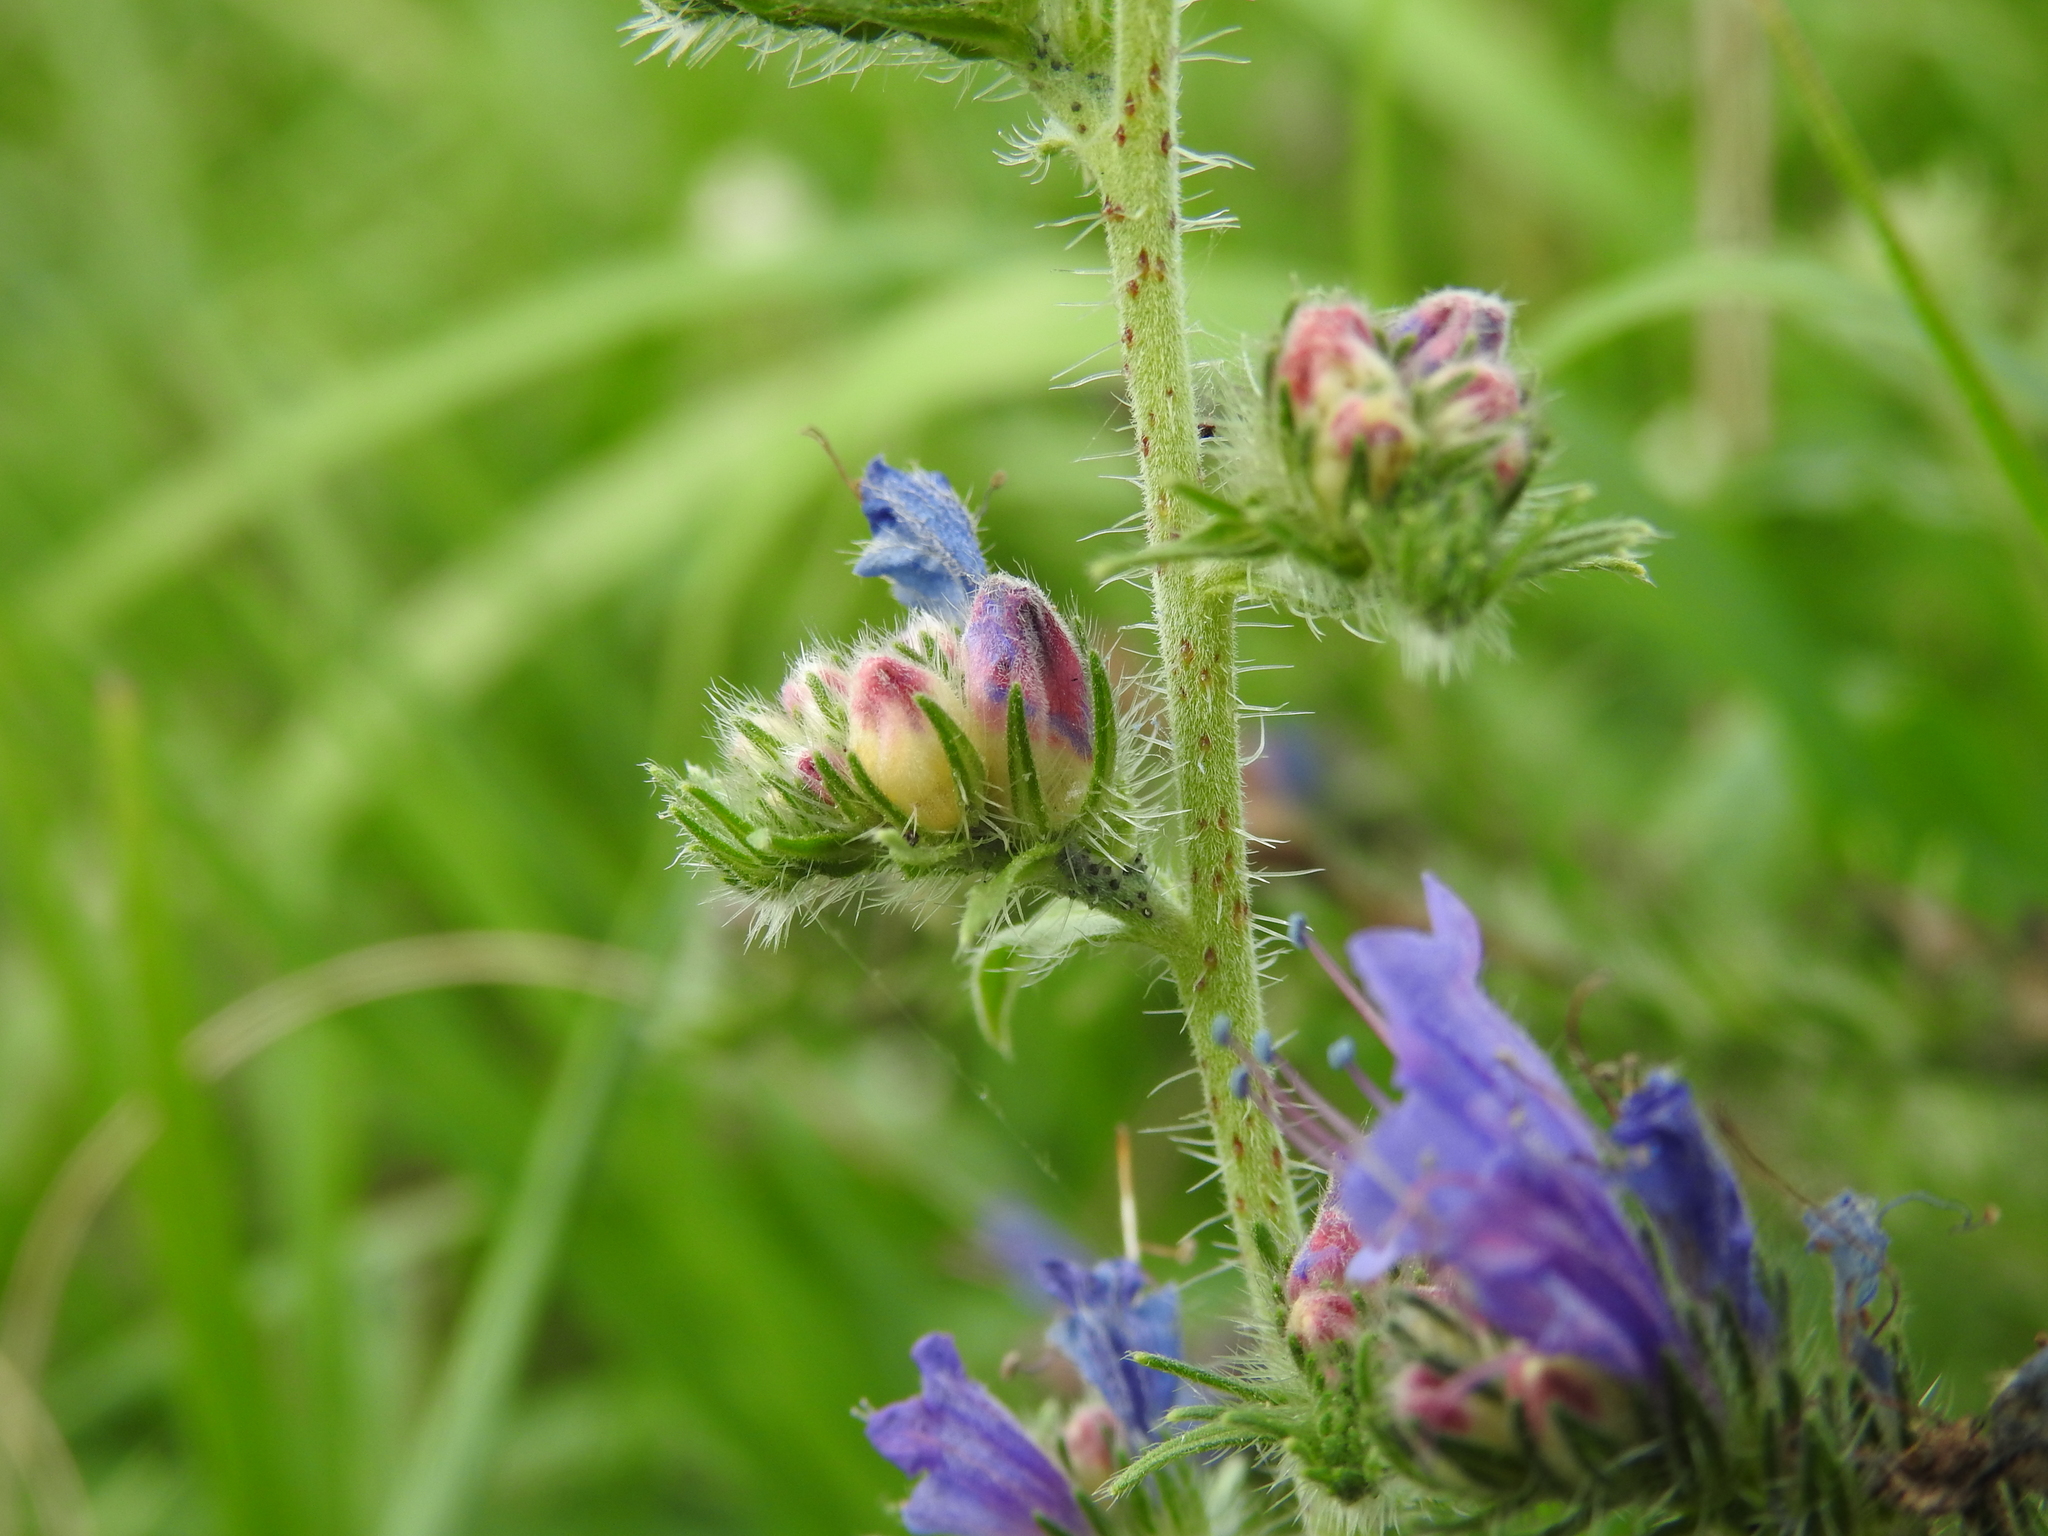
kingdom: Animalia
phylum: Arthropoda
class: Insecta
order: Diptera
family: Cecidomyiidae
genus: Contarinia
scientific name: Contarinia echii
